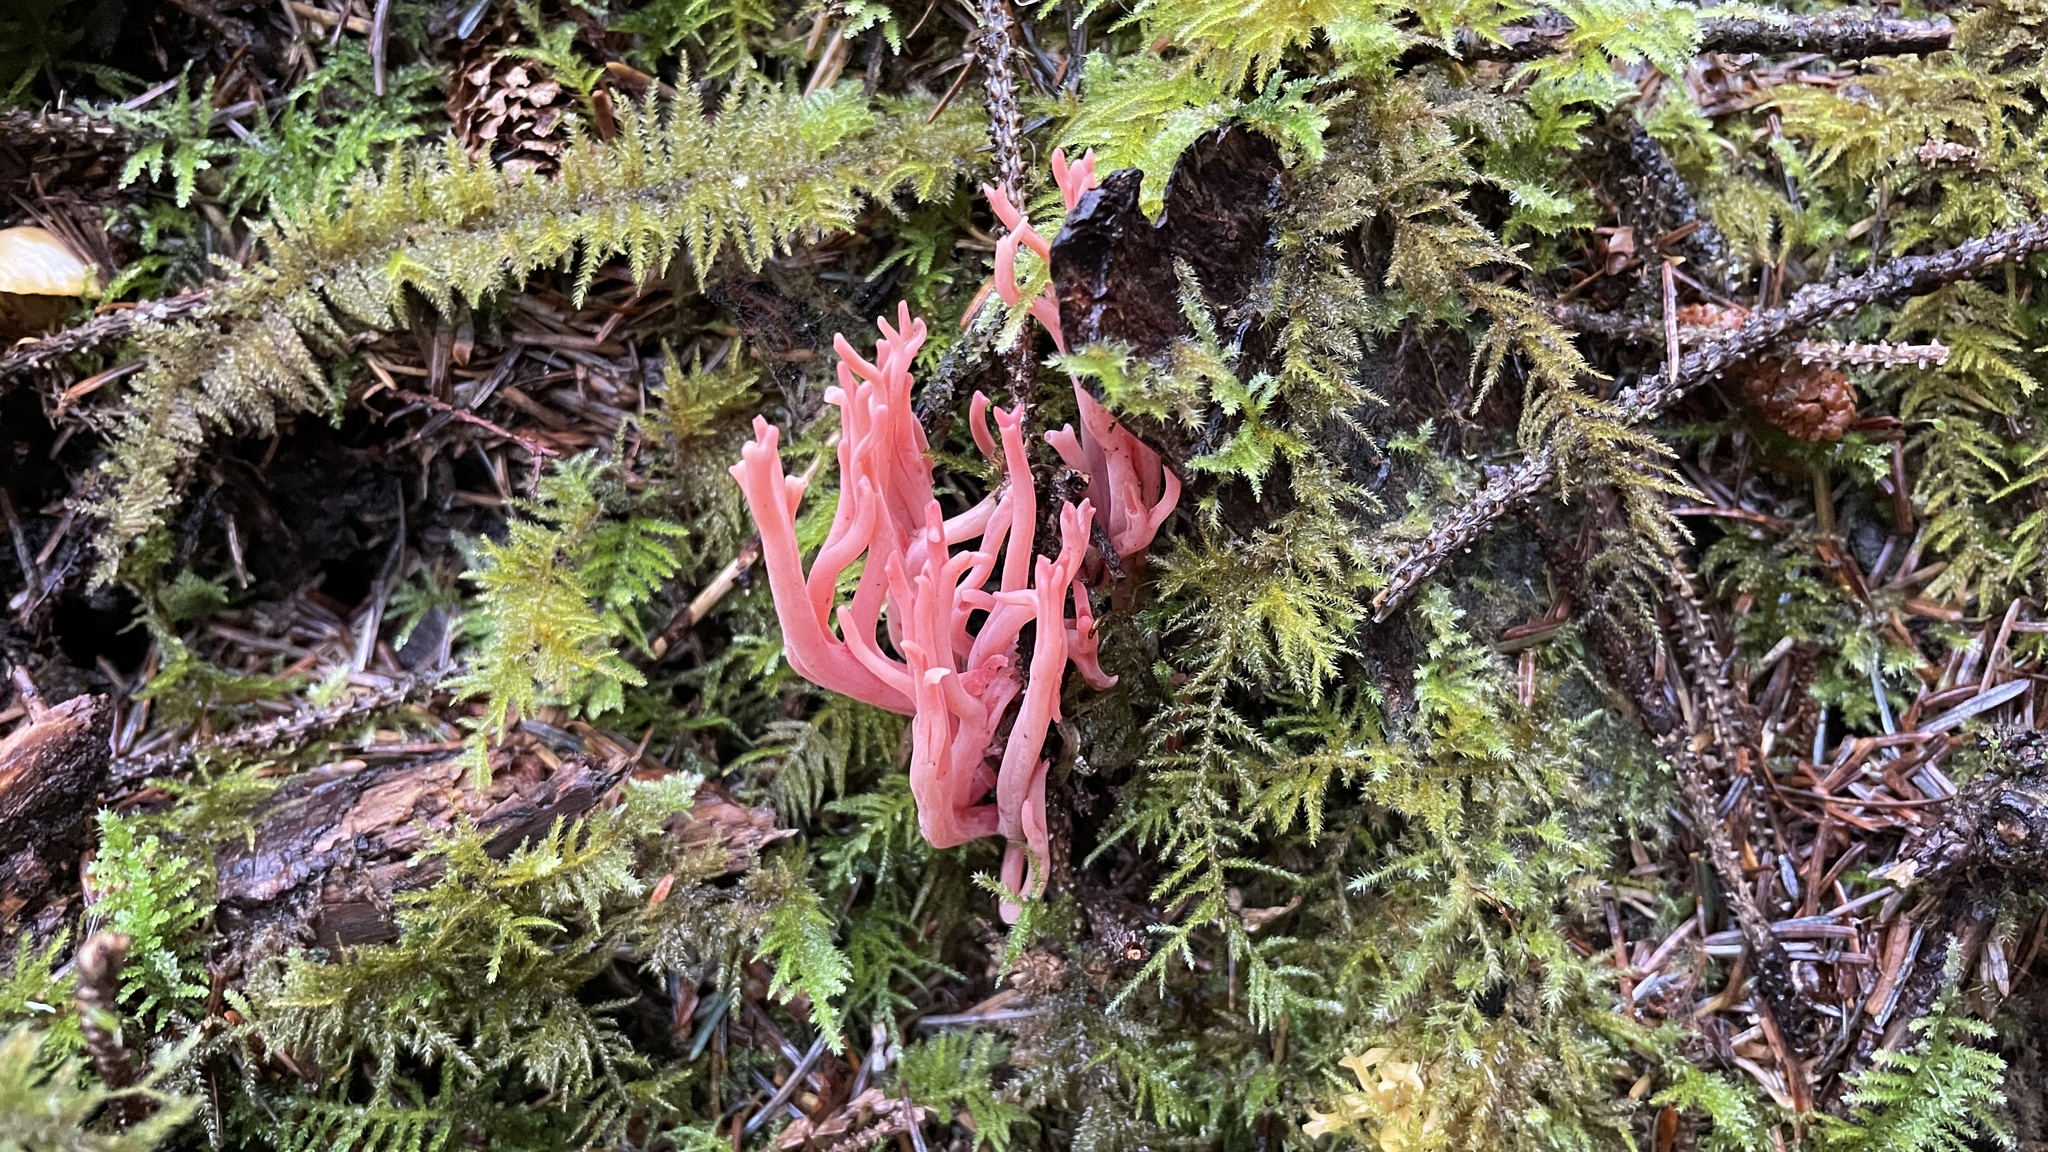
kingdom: Fungi
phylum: Basidiomycota
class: Agaricomycetes
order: Gomphales
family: Gomphaceae
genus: Ramaria
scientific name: Ramaria araiospora
